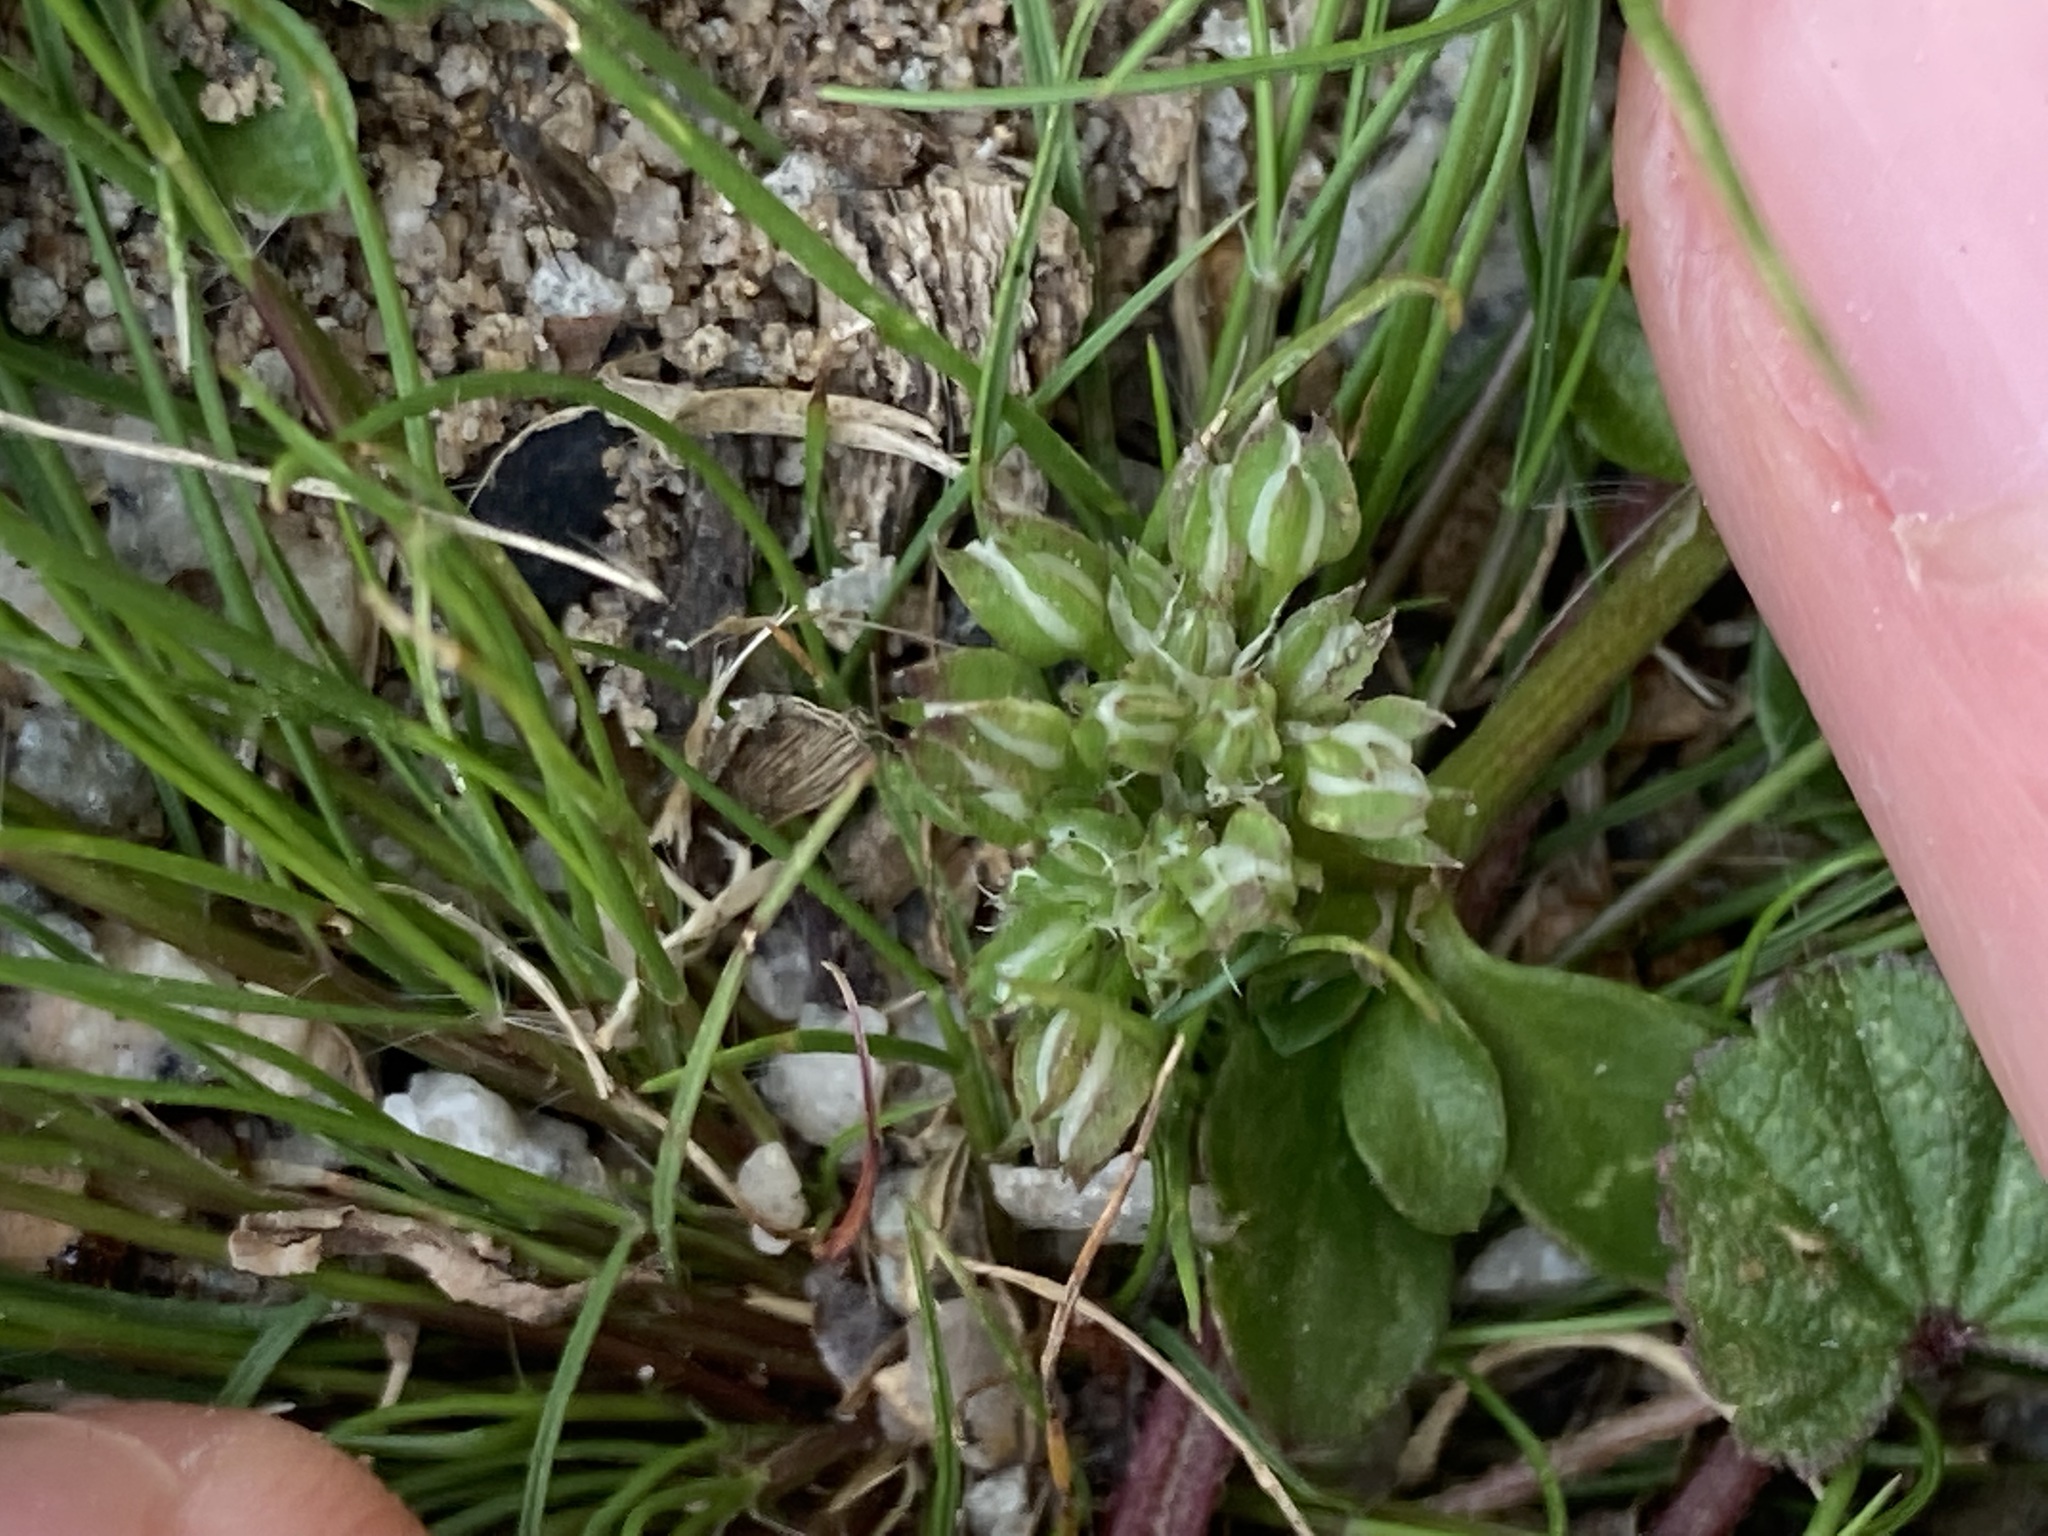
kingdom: Plantae
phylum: Tracheophyta
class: Magnoliopsida
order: Caryophyllales
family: Caryophyllaceae
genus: Polycarpon
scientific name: Polycarpon tetraphyllum
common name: Four-leaved all-seed
